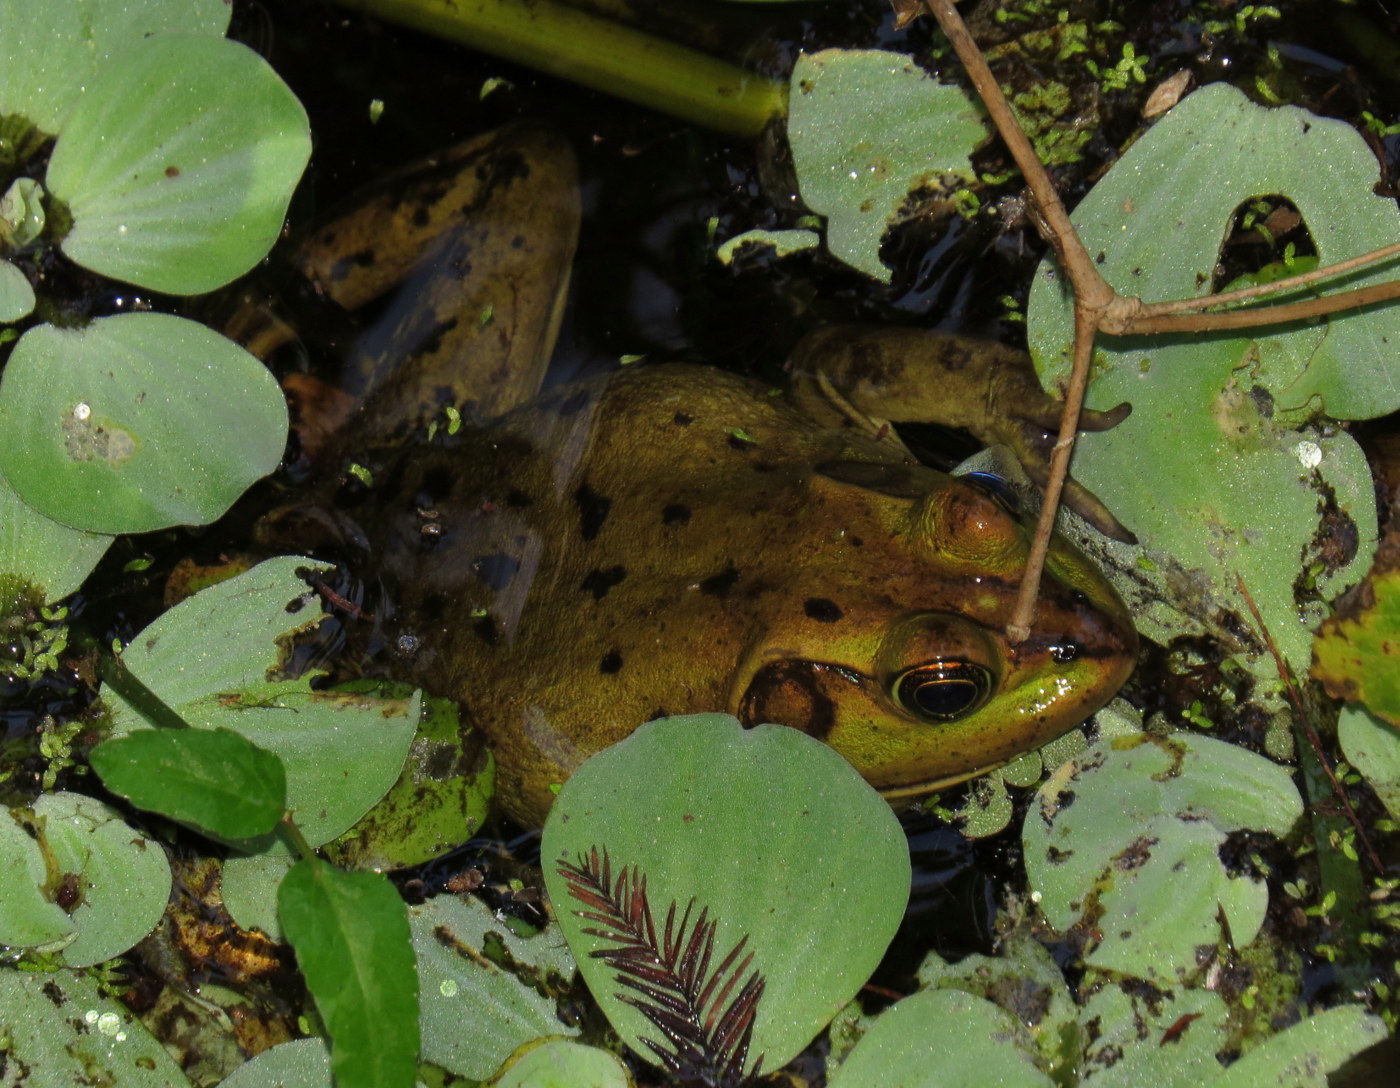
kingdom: Animalia
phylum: Chordata
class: Amphibia
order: Anura
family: Ranidae
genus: Lithobates
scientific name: Lithobates grylio
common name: Pig frog
